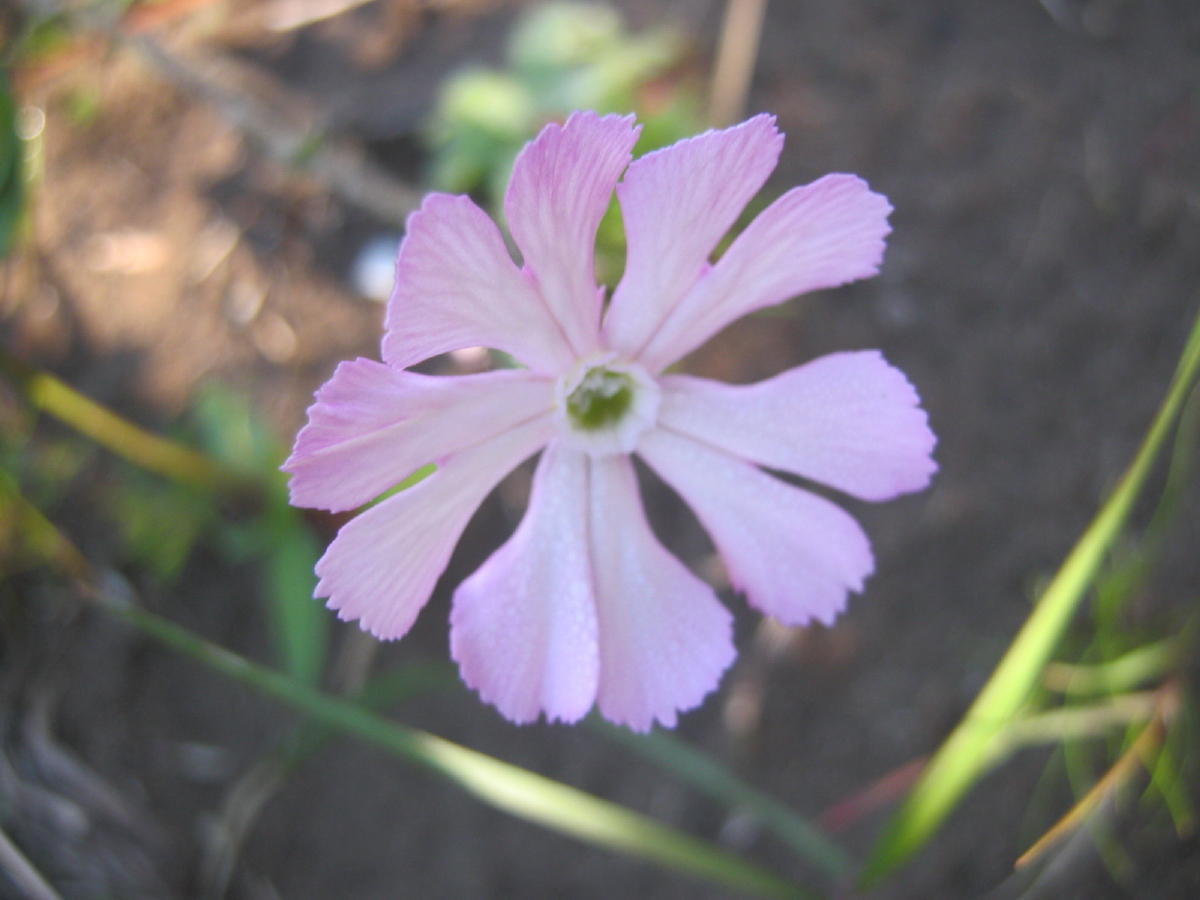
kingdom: Plantae
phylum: Tracheophyta
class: Magnoliopsida
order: Caryophyllales
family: Caryophyllaceae
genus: Silene
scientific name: Silene undulata
